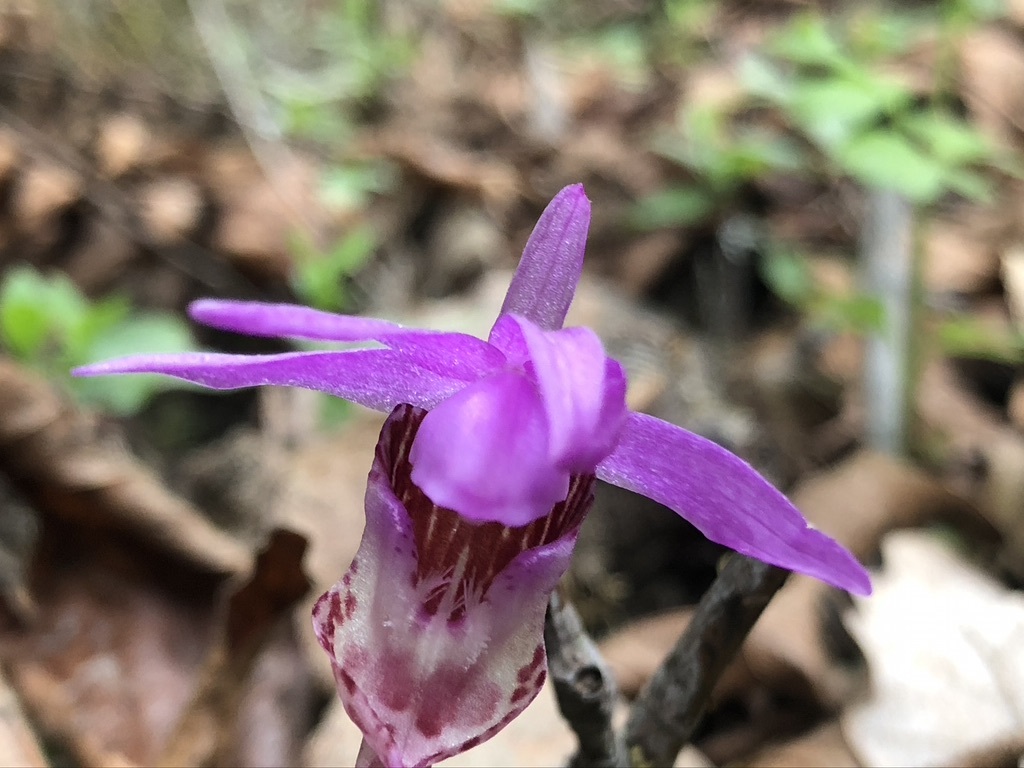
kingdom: Plantae
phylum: Tracheophyta
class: Liliopsida
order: Asparagales
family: Orchidaceae
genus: Calypso
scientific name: Calypso bulbosa
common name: Calypso
